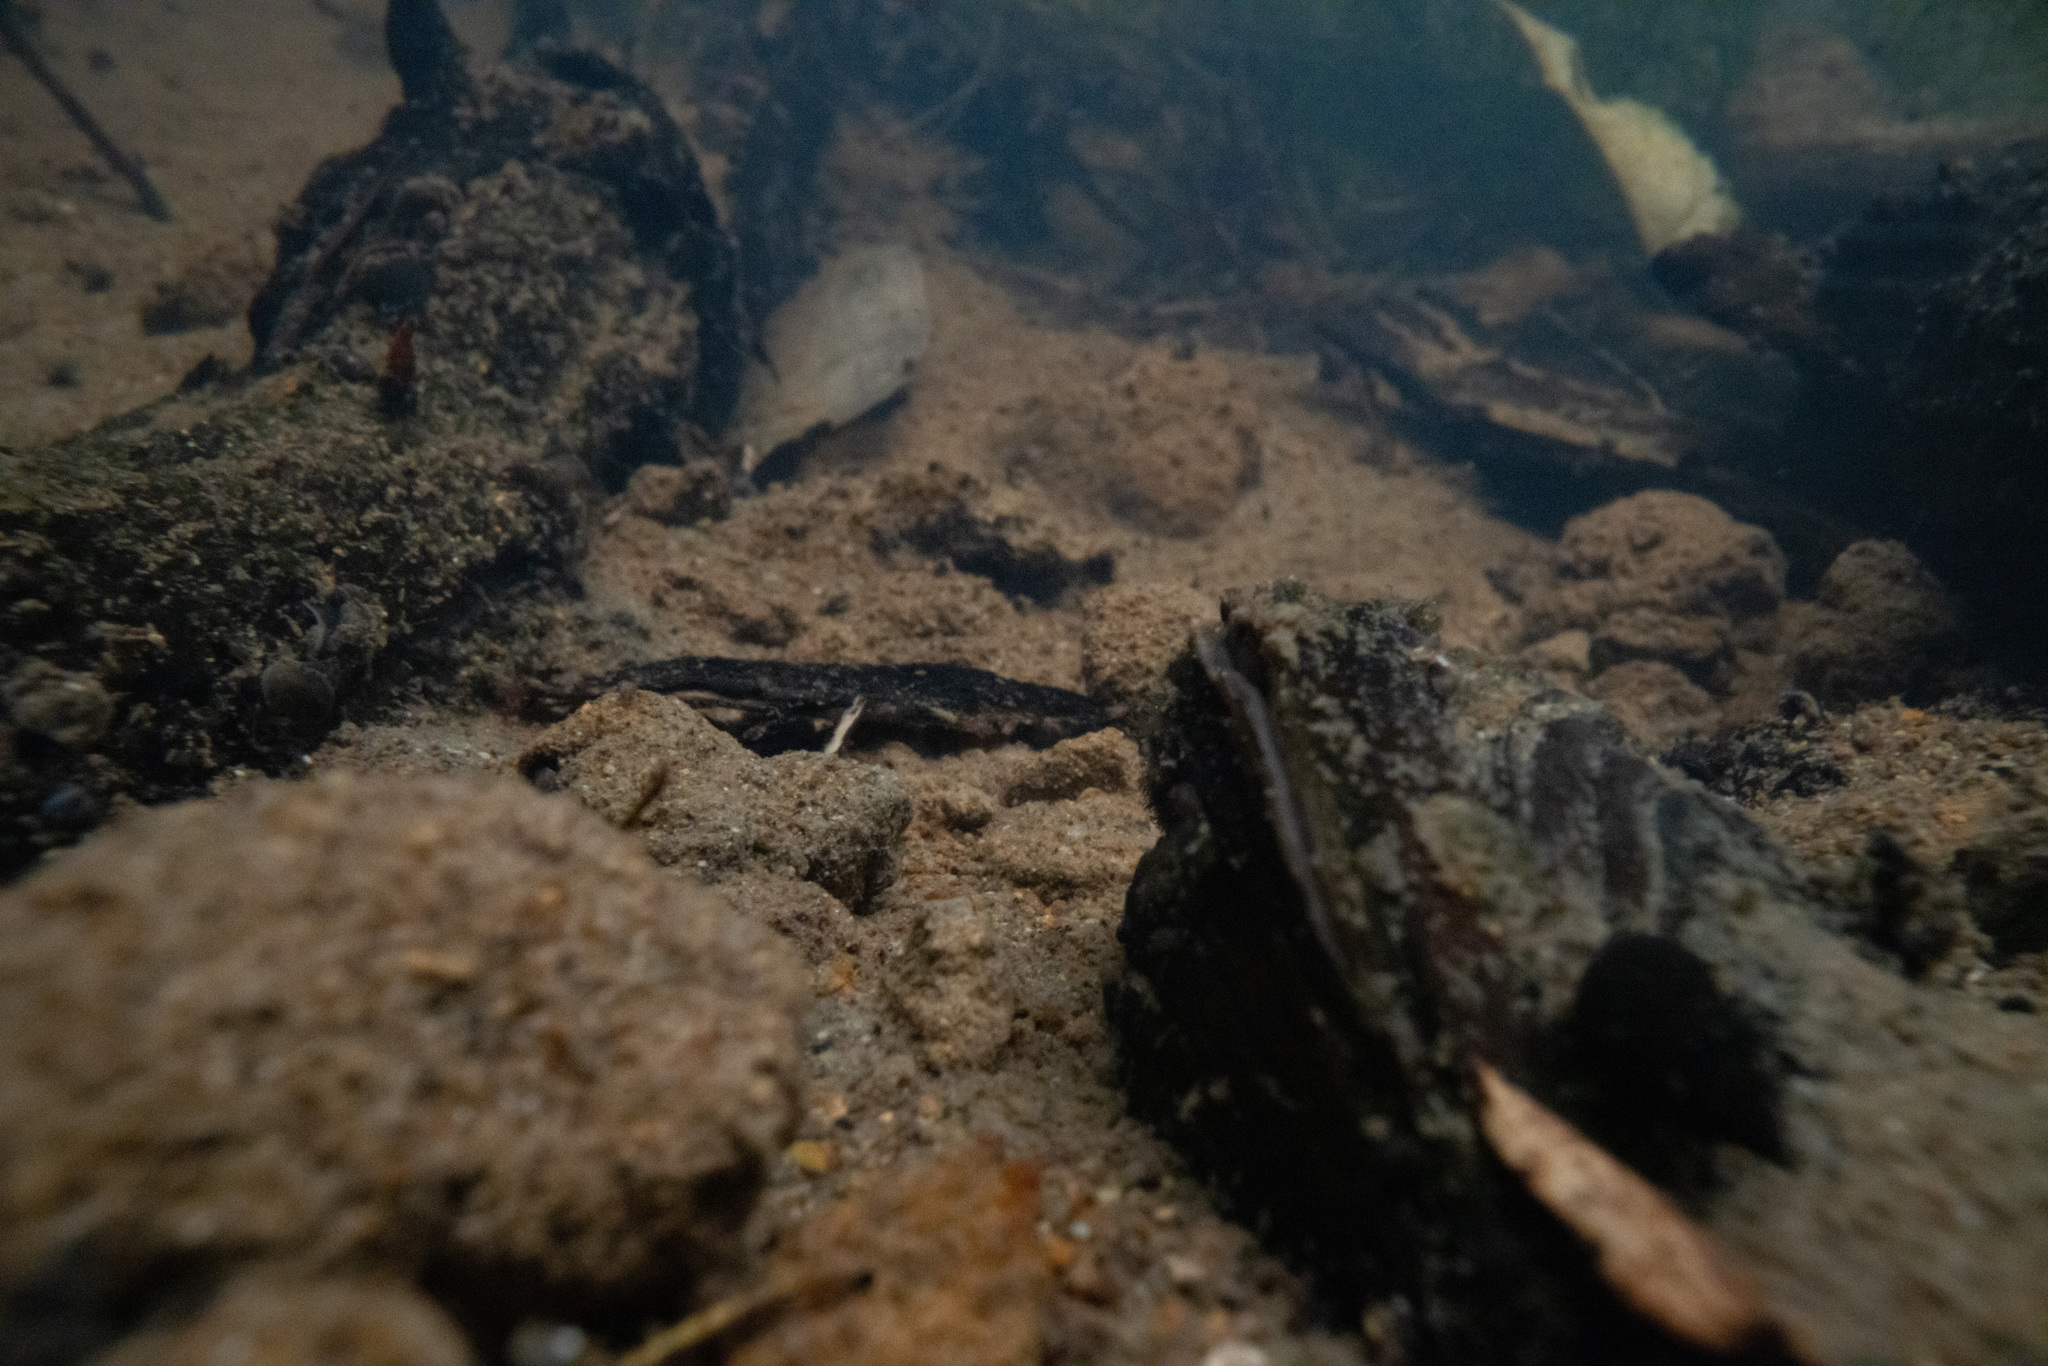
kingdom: Animalia
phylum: Mollusca
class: Bivalvia
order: Unionida
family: Hyriidae
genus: Echyridella
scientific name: Echyridella menziesii
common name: New zealand freshwater mussel
